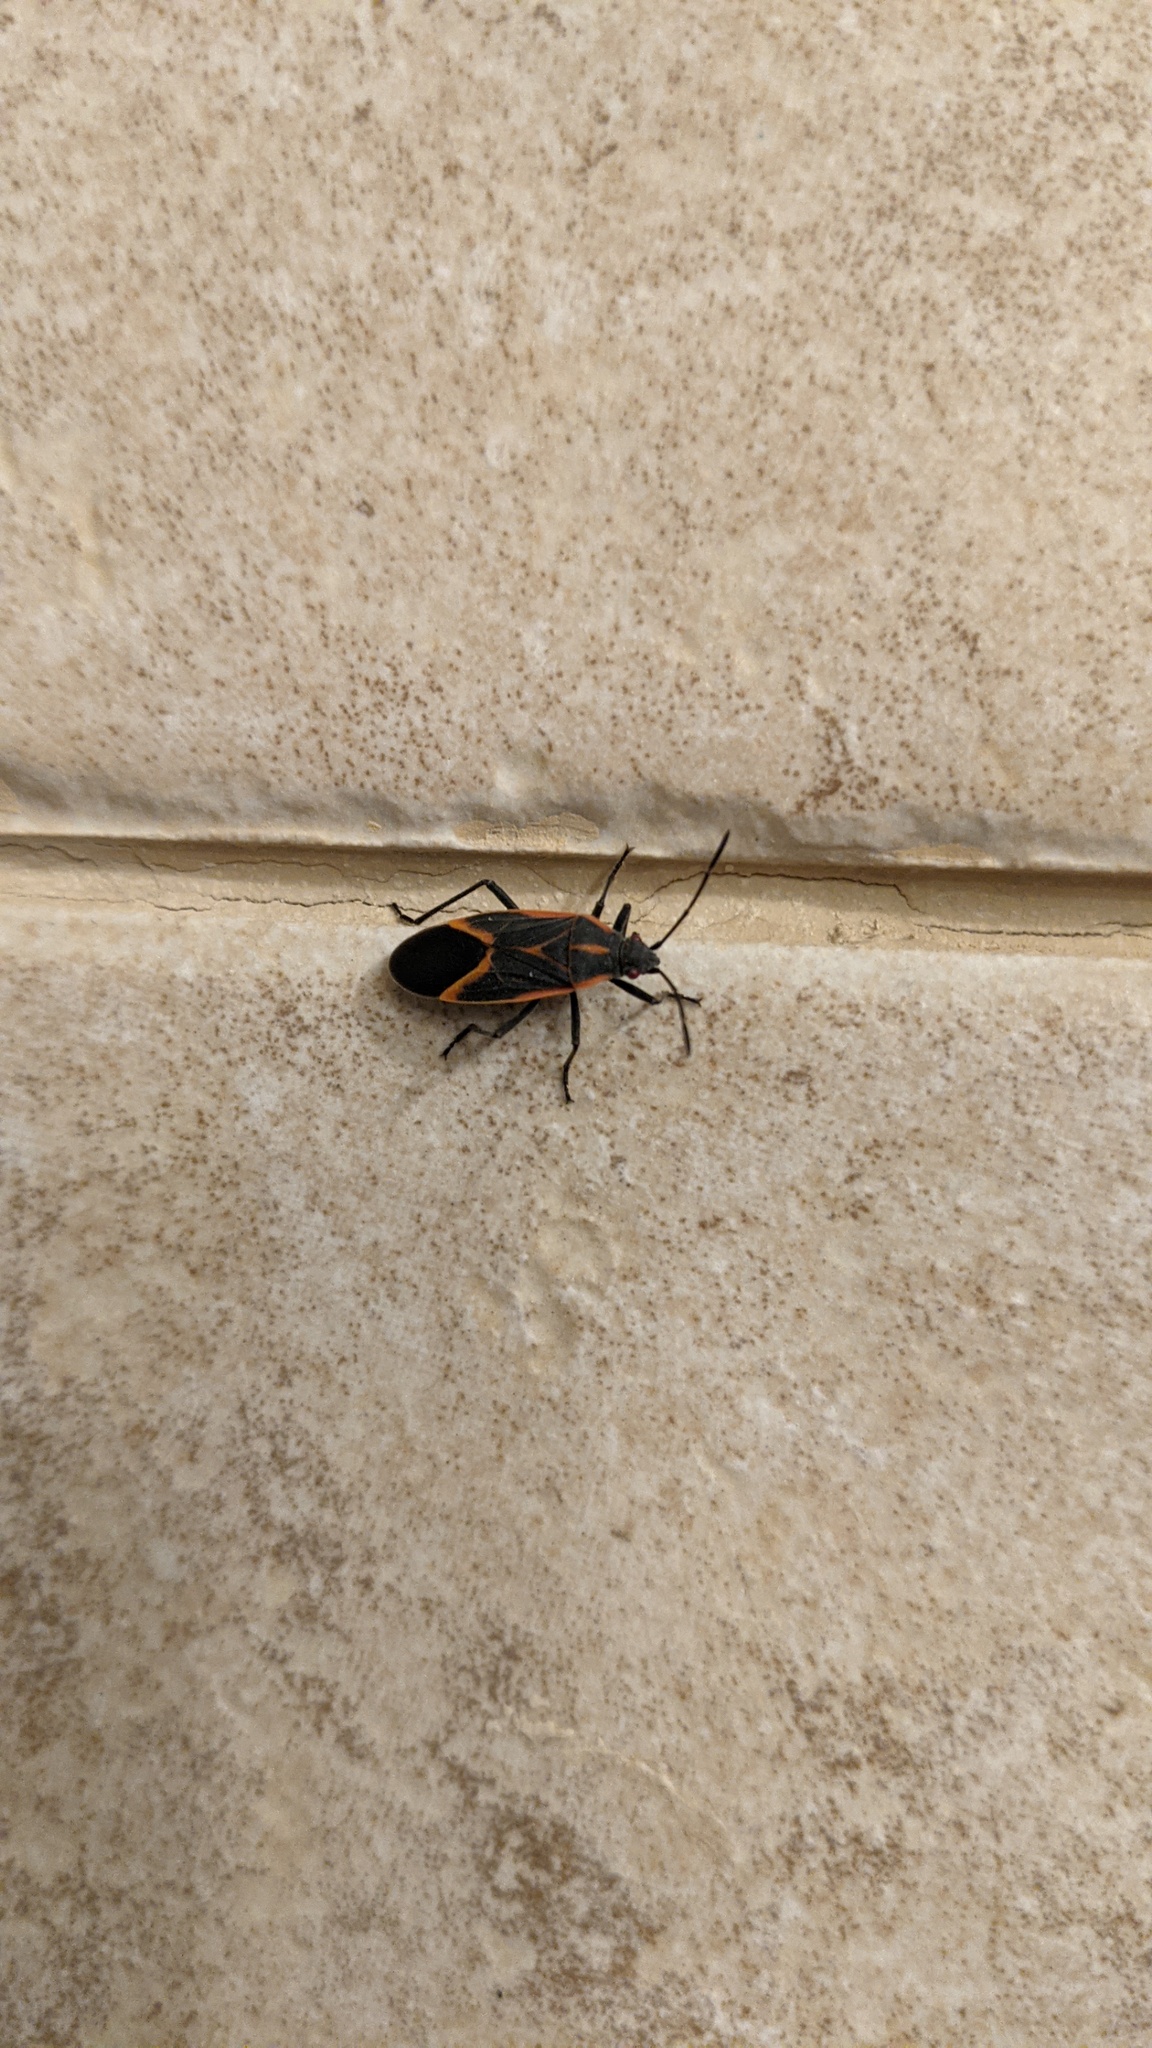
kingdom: Animalia
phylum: Arthropoda
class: Insecta
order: Hemiptera
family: Rhopalidae
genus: Boisea
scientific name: Boisea trivittata
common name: Boxelder bug
